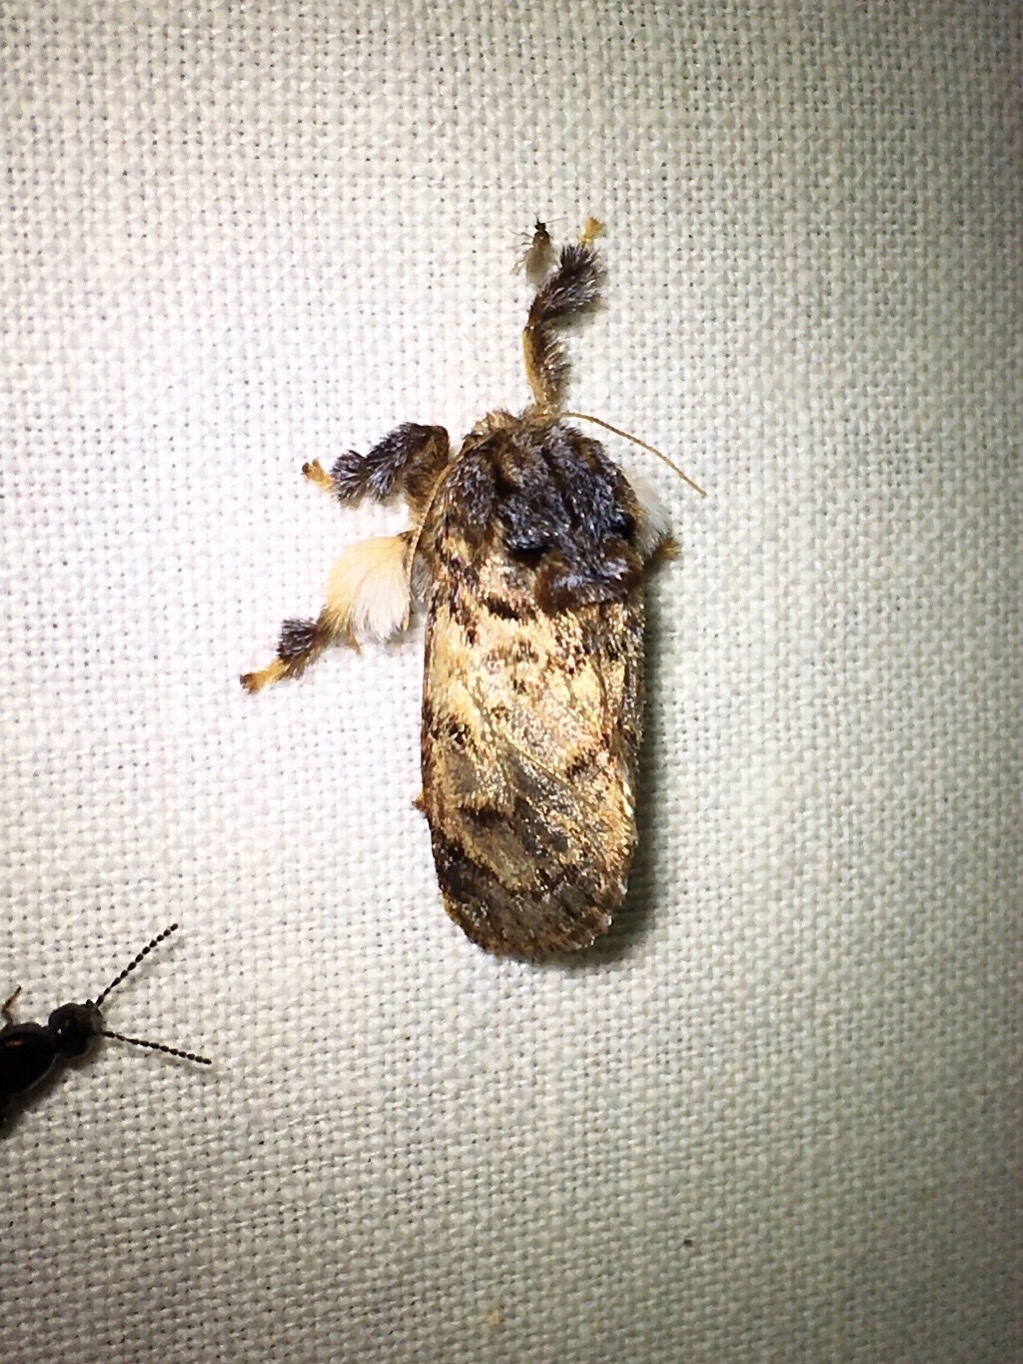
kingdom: Animalia
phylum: Arthropoda
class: Insecta
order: Lepidoptera
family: Limacodidae
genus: Phobetron
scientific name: Phobetron pithecium
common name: Hag moth
